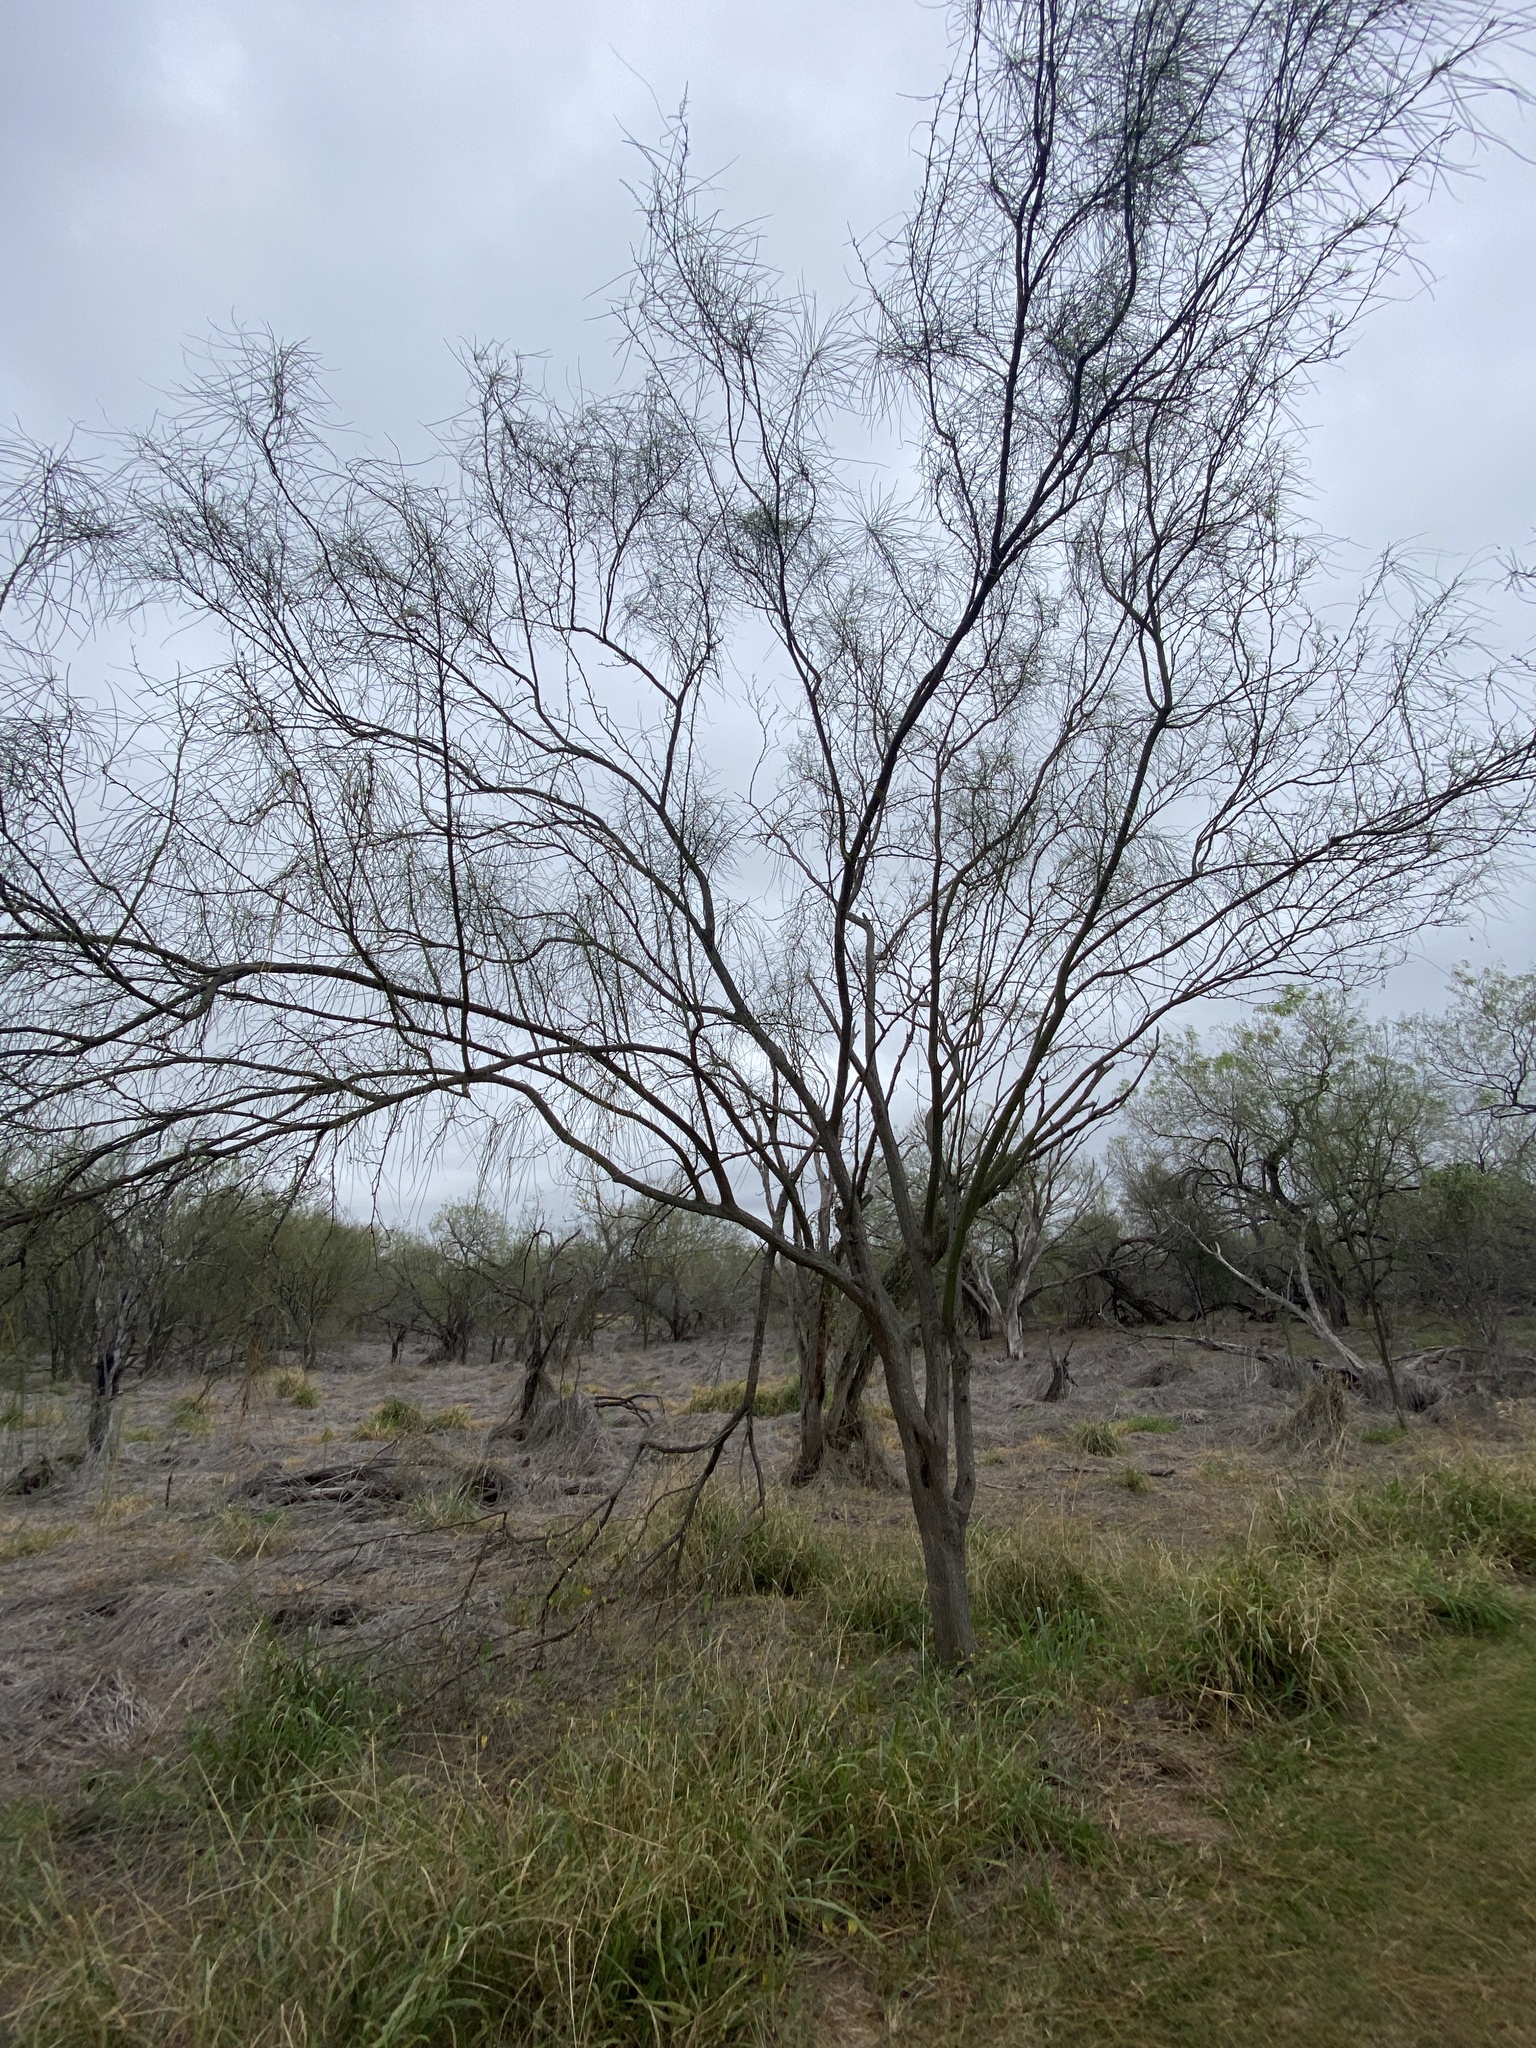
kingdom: Plantae
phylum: Tracheophyta
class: Magnoliopsida
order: Fabales
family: Fabaceae
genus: Parkinsonia
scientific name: Parkinsonia aculeata
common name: Jerusalem thorn
